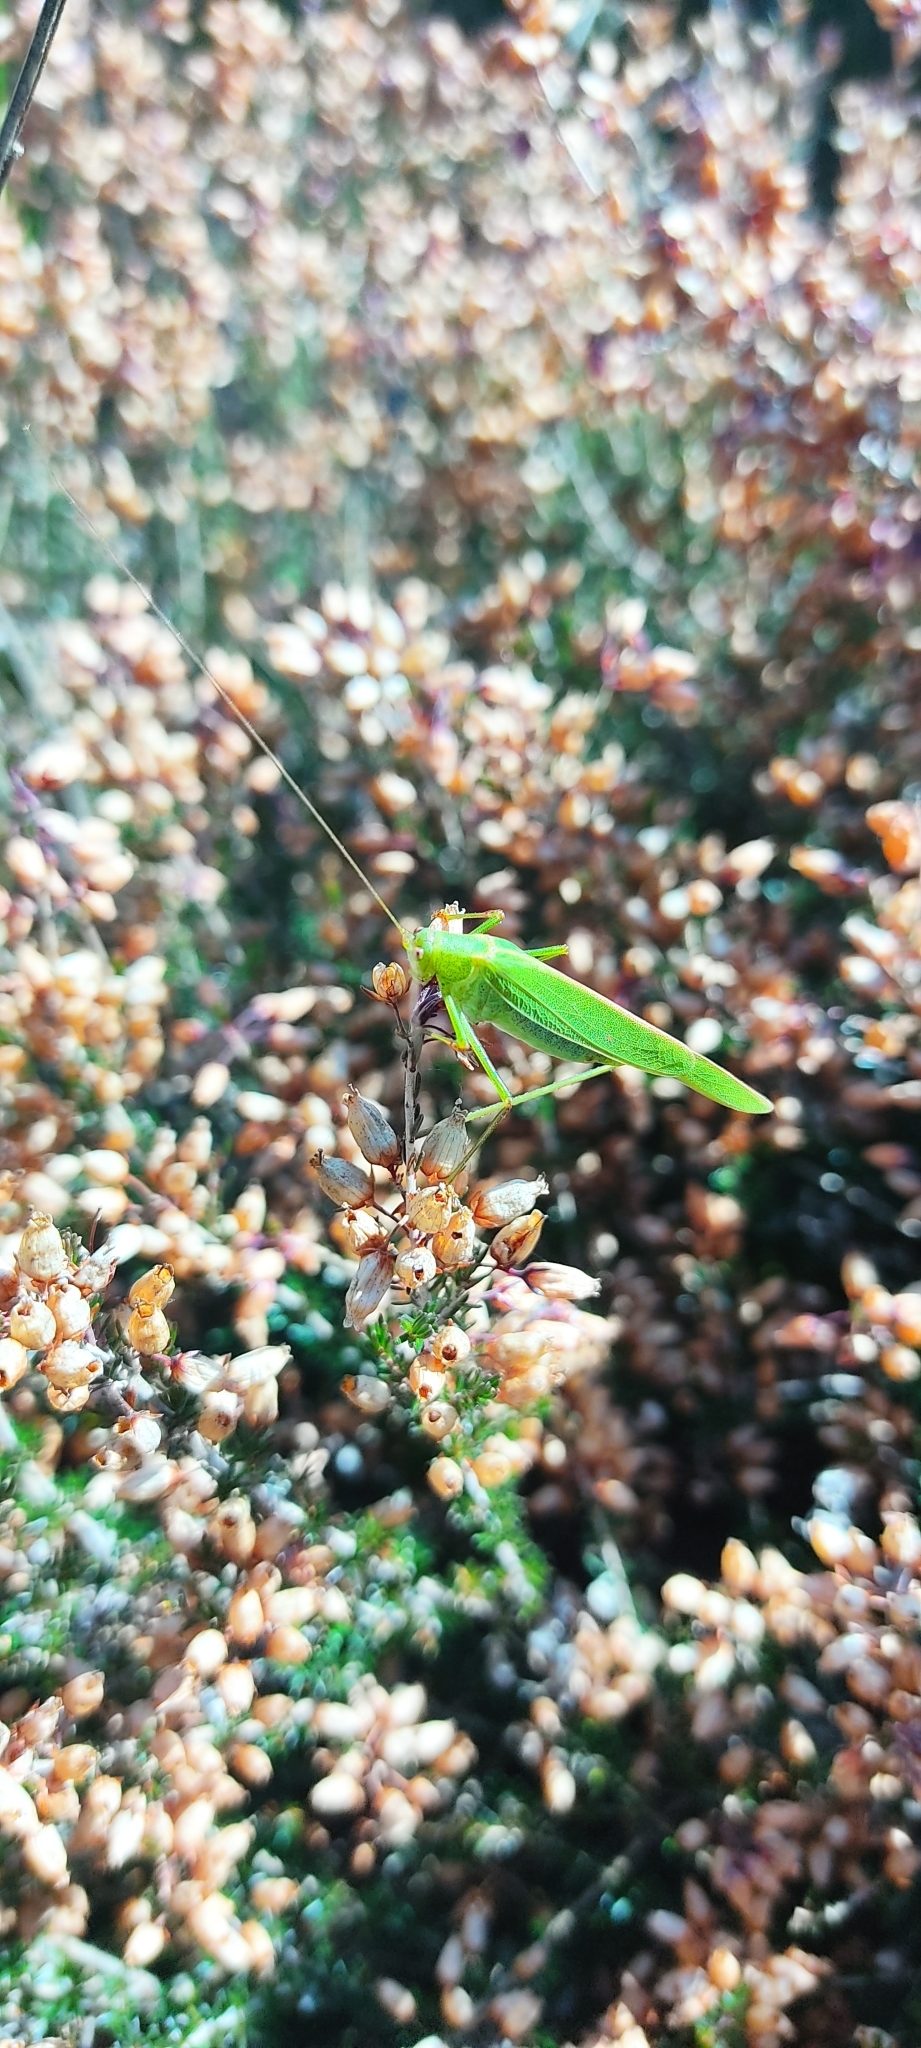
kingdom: Animalia
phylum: Arthropoda
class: Insecta
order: Orthoptera
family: Tettigoniidae
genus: Phaneroptera
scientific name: Phaneroptera falcata
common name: Sickle-bearing bush-cricket
